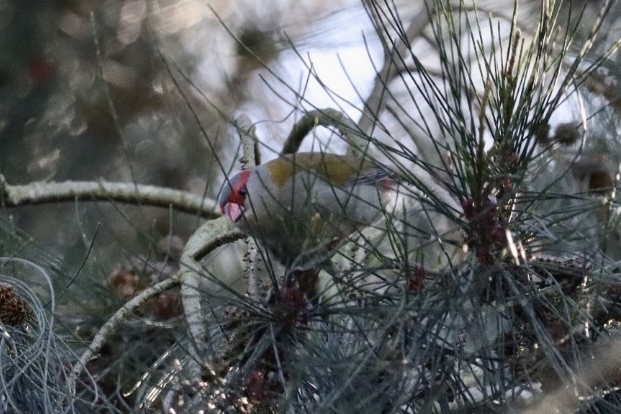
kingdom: Animalia
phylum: Chordata
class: Aves
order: Passeriformes
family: Estrildidae
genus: Neochmia
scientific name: Neochmia temporalis
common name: Red-browed finch
